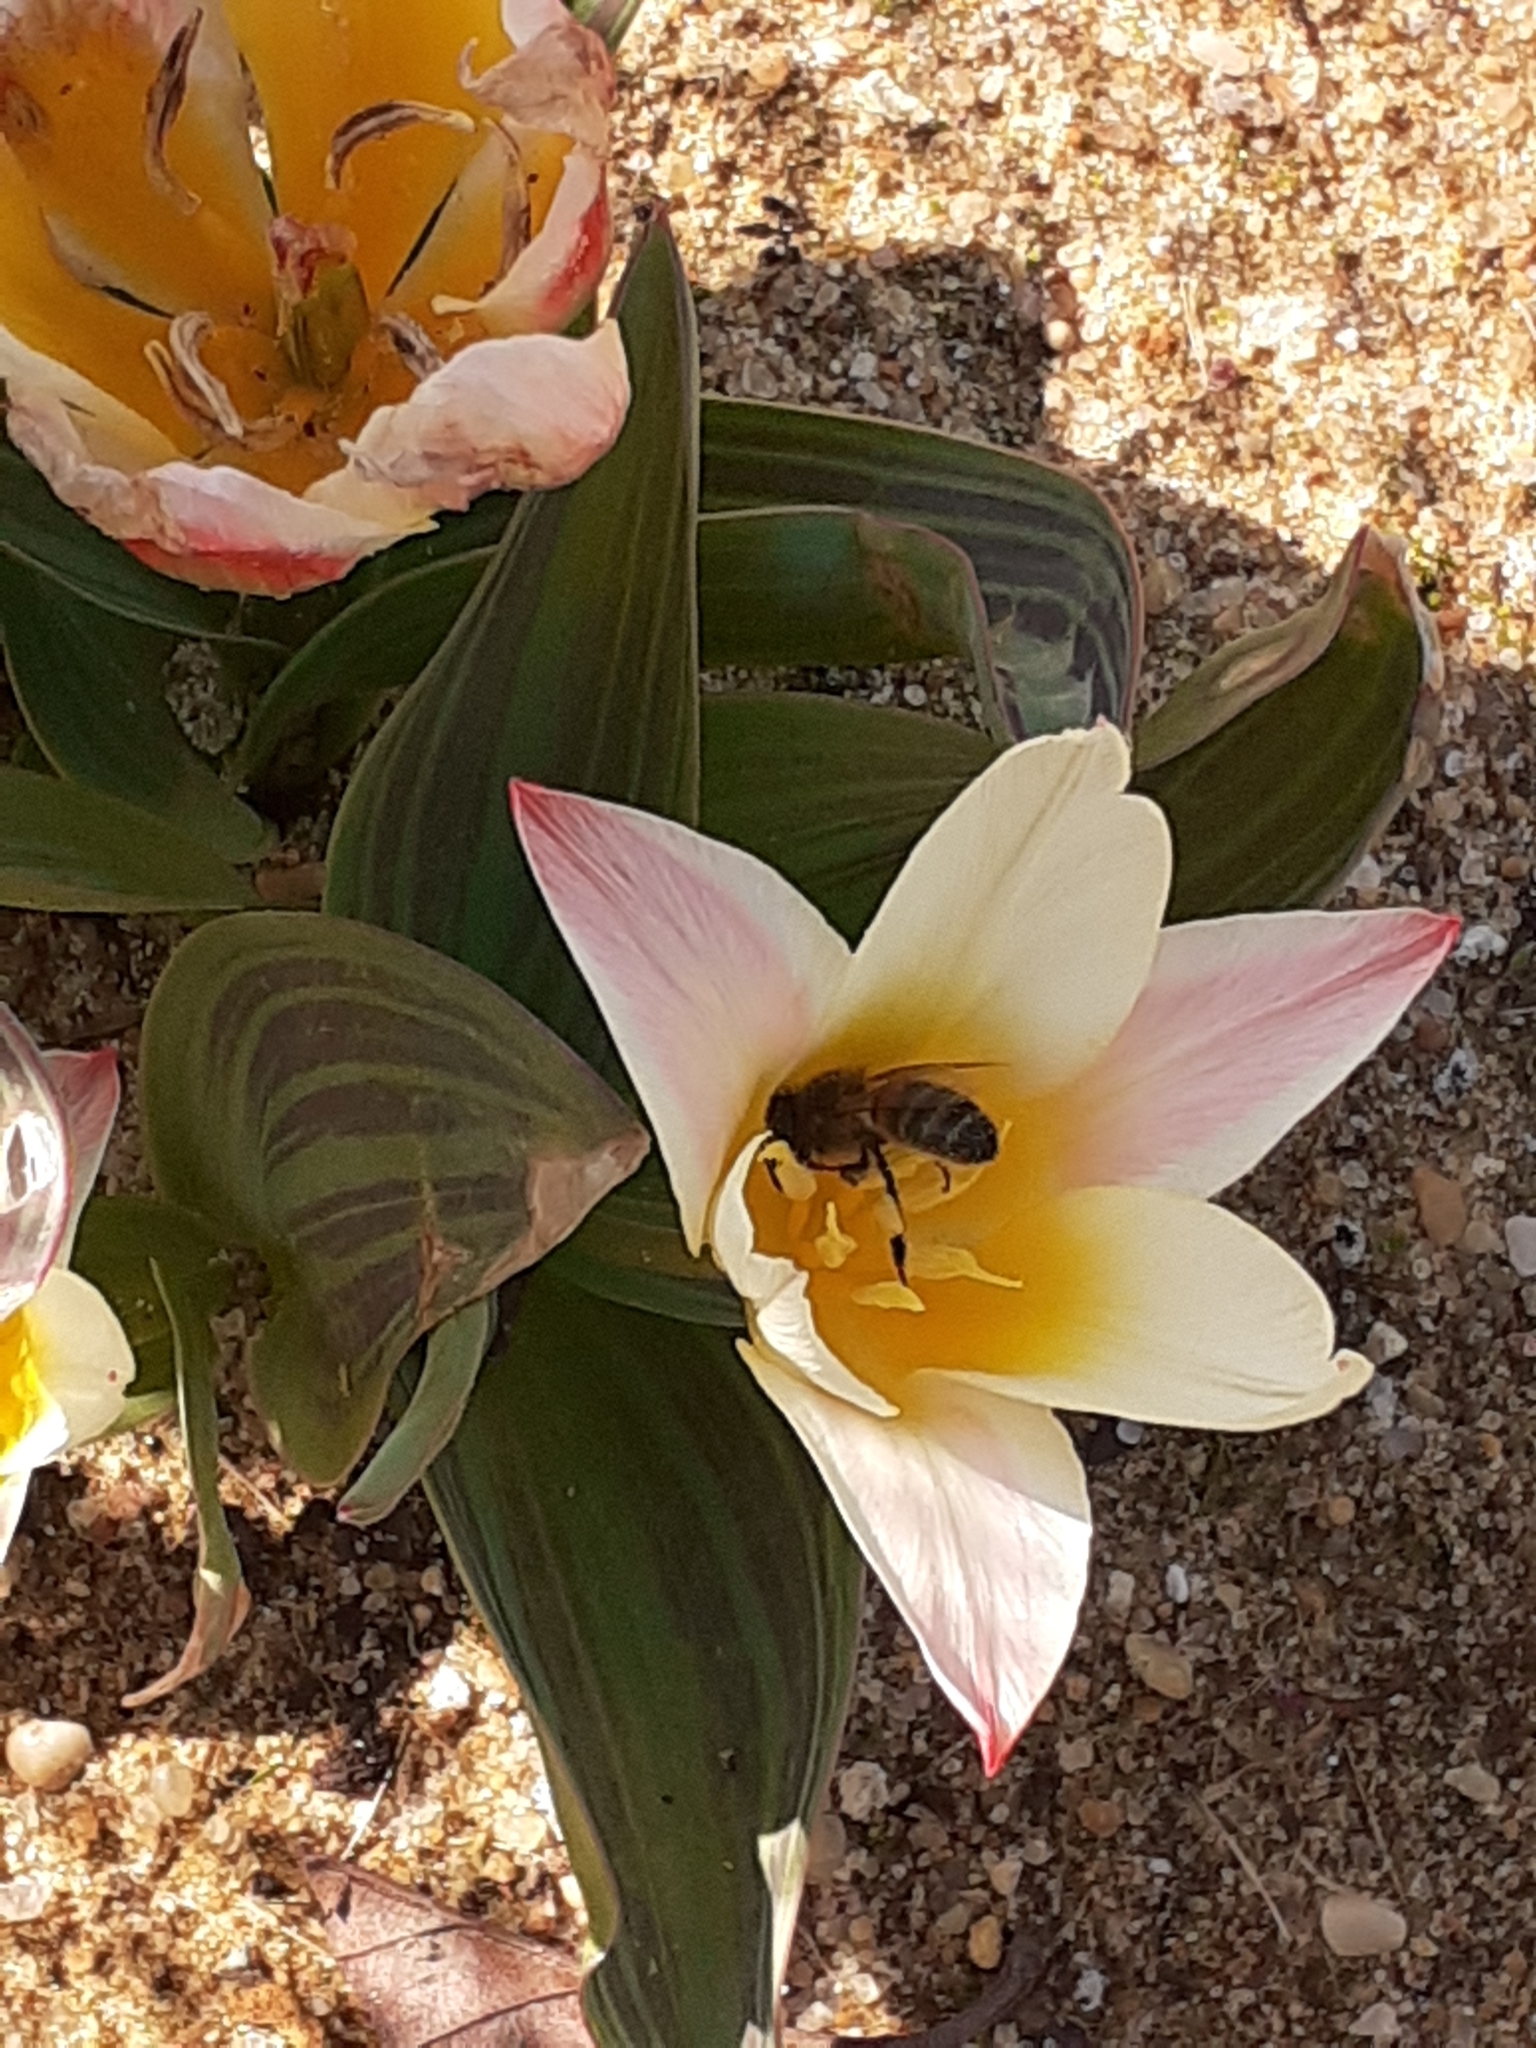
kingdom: Animalia
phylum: Arthropoda
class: Insecta
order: Hymenoptera
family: Apidae
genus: Apis
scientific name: Apis mellifera
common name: Honey bee
